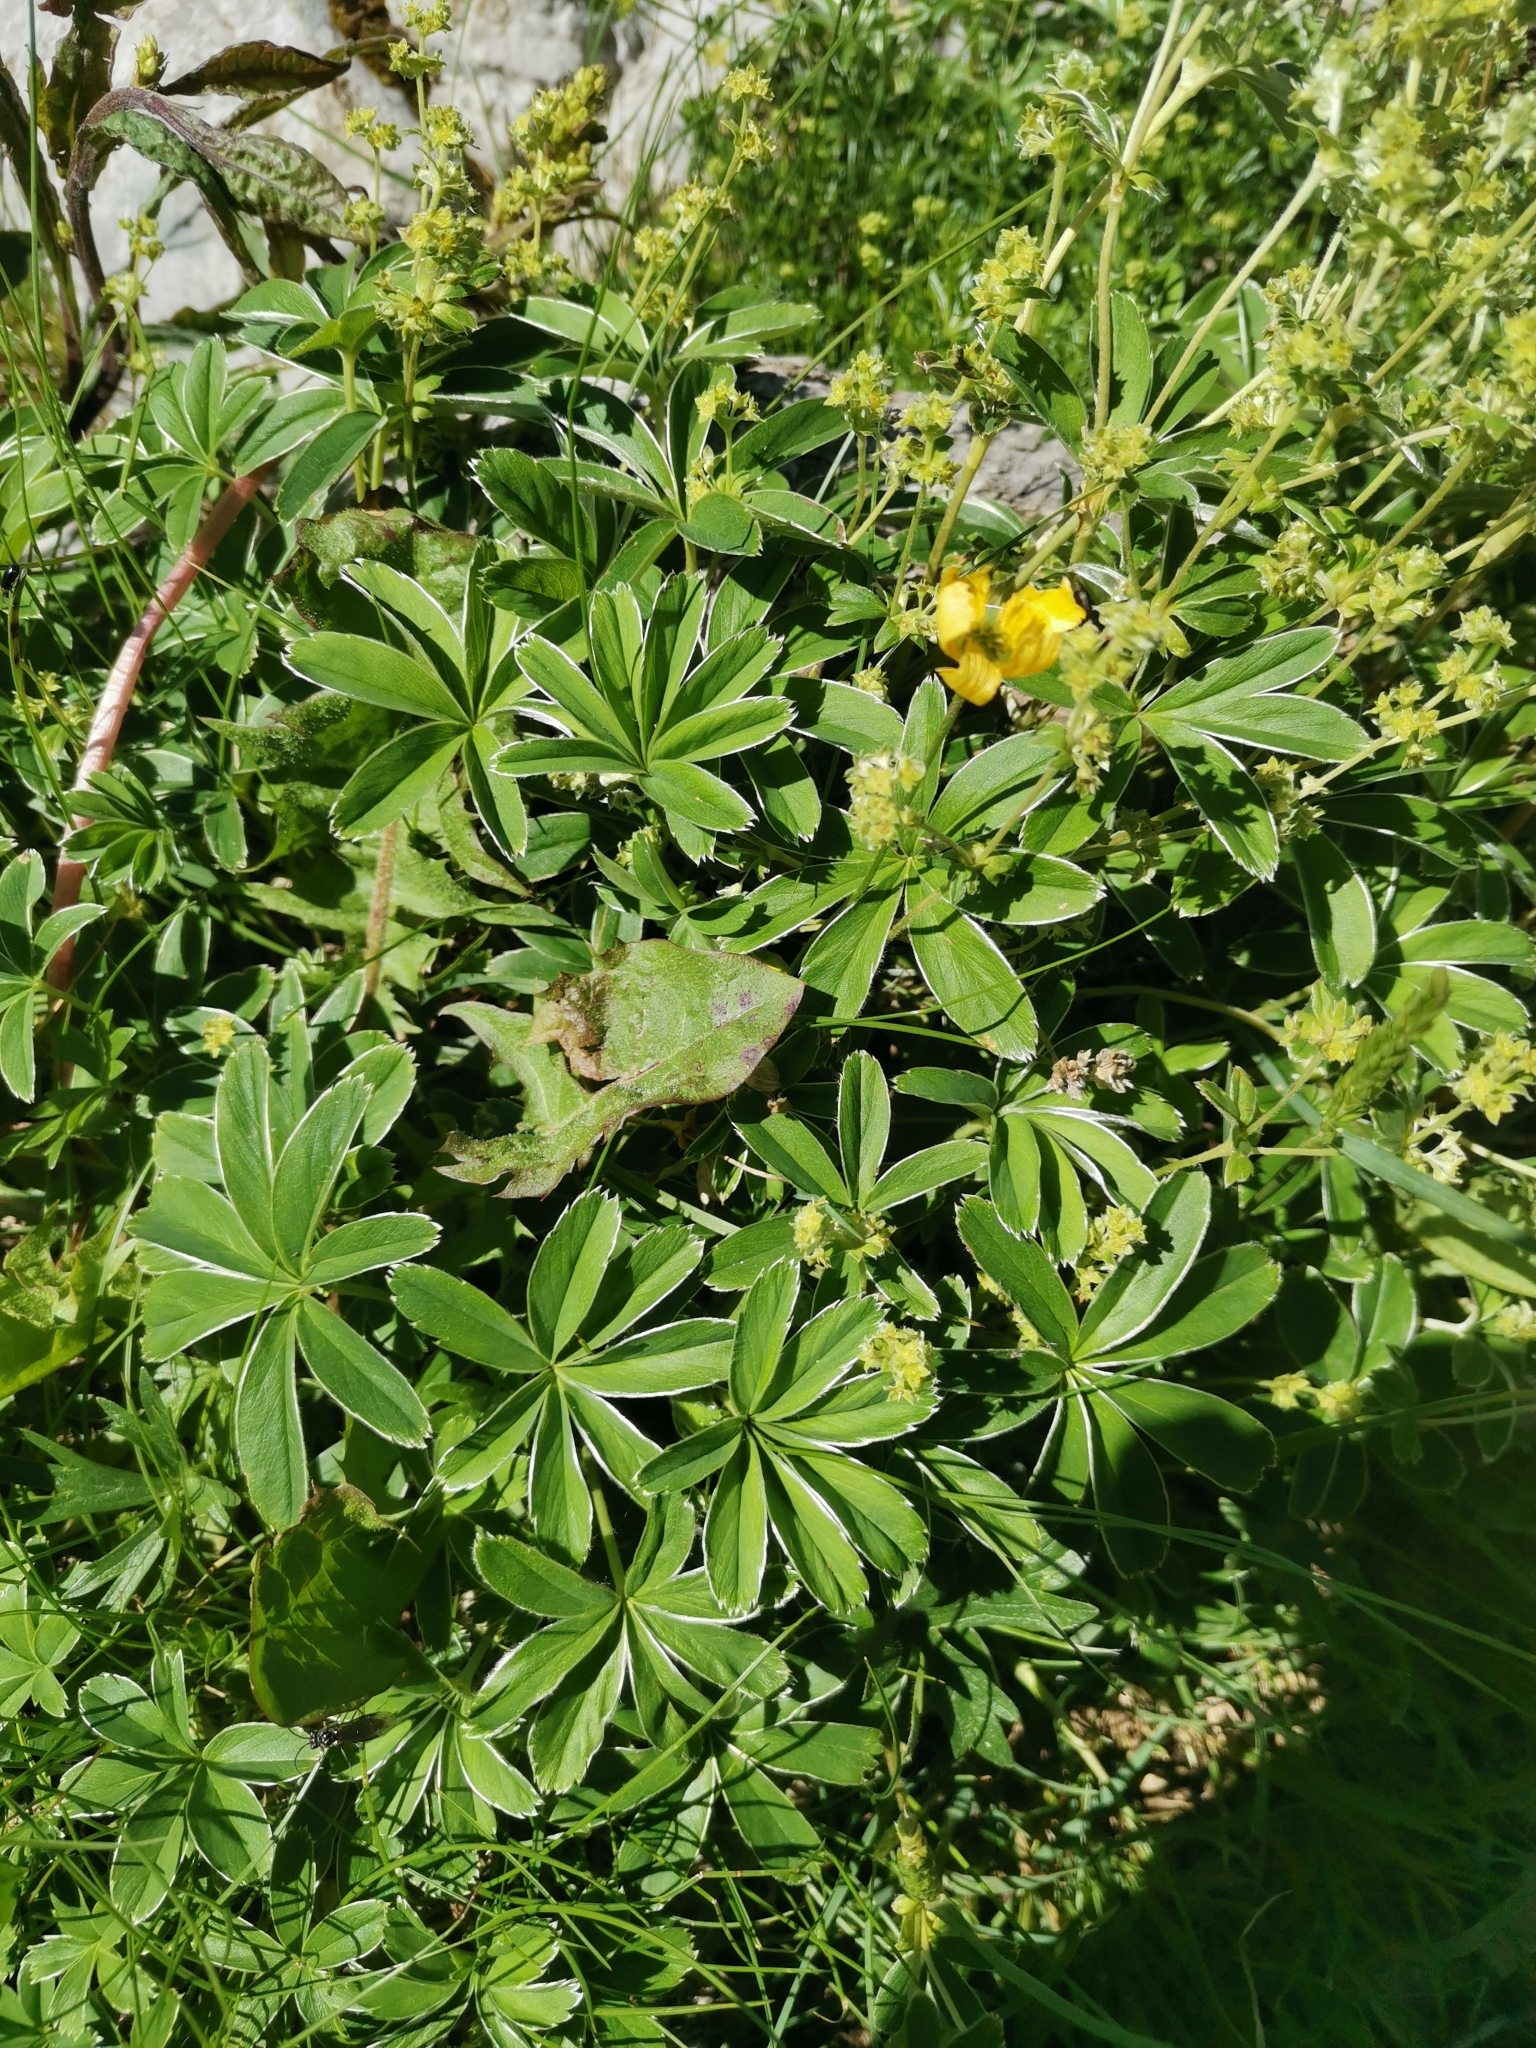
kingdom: Plantae
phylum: Tracheophyta
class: Magnoliopsida
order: Rosales
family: Rosaceae
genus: Alchemilla
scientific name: Alchemilla velebitica
